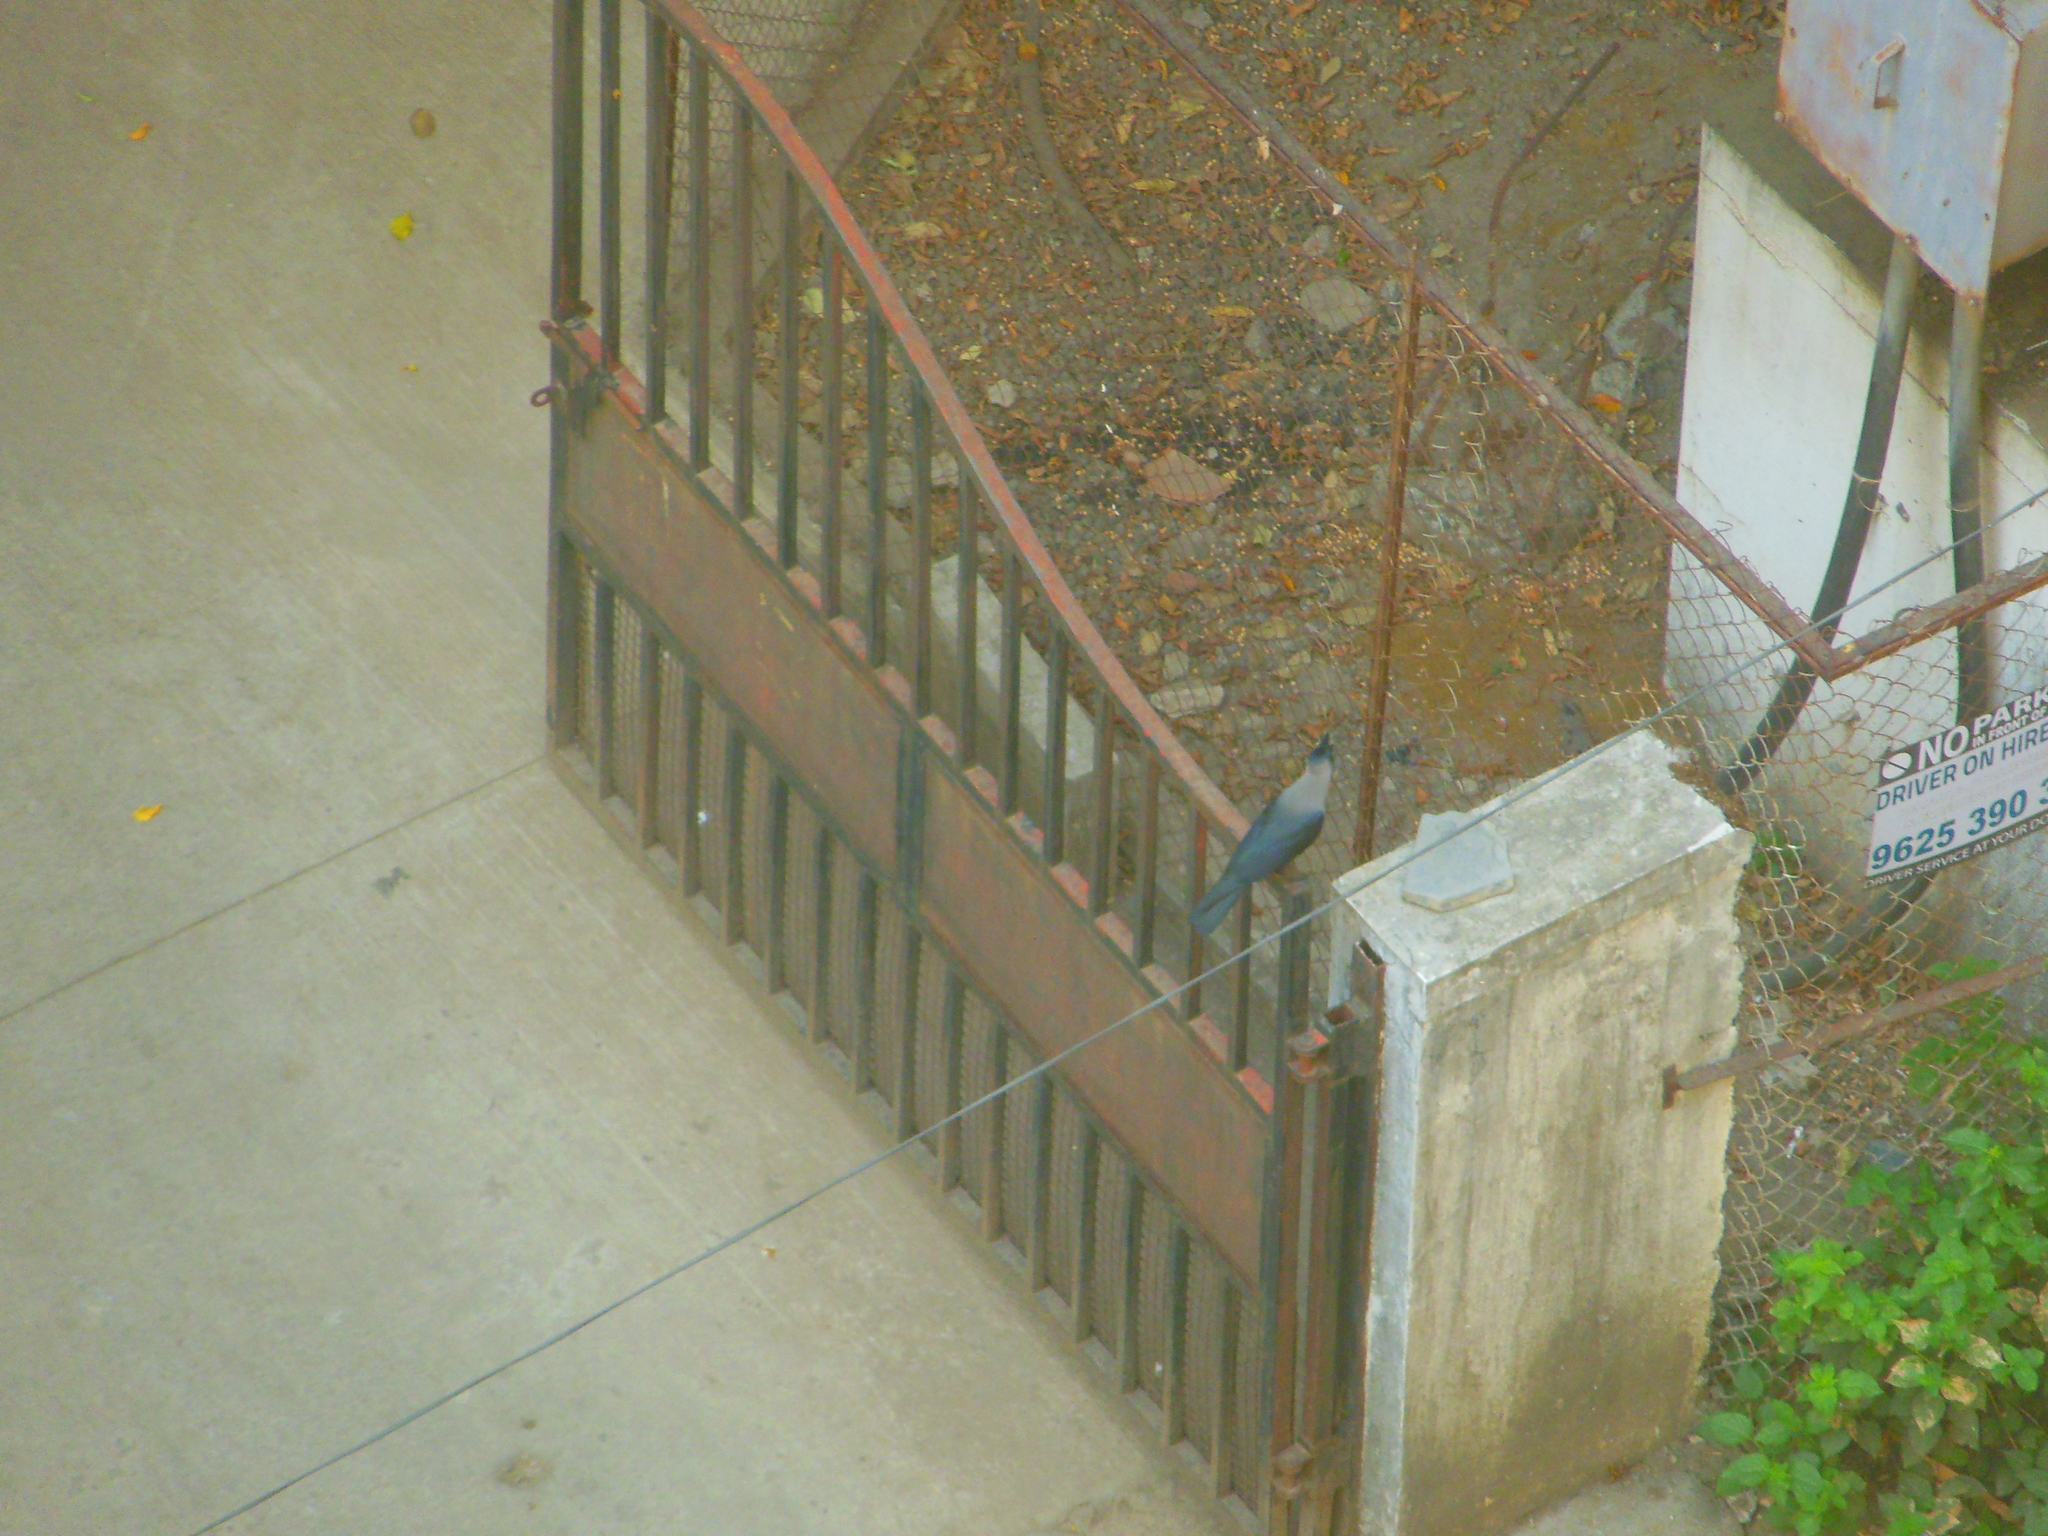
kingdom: Animalia
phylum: Chordata
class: Aves
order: Passeriformes
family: Corvidae
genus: Corvus
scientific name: Corvus splendens
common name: House crow
